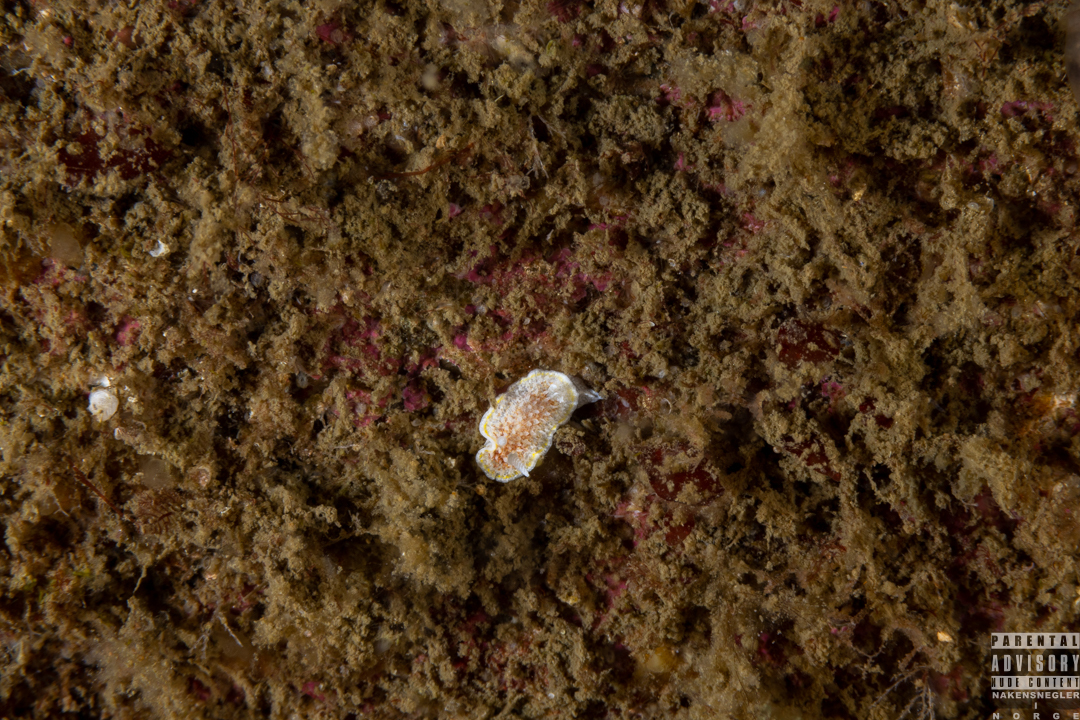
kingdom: Animalia
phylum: Mollusca
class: Gastropoda
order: Nudibranchia
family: Calycidorididae
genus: Diaphorodoris
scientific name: Diaphorodoris luteocincta
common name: Fried egg nudibranch
